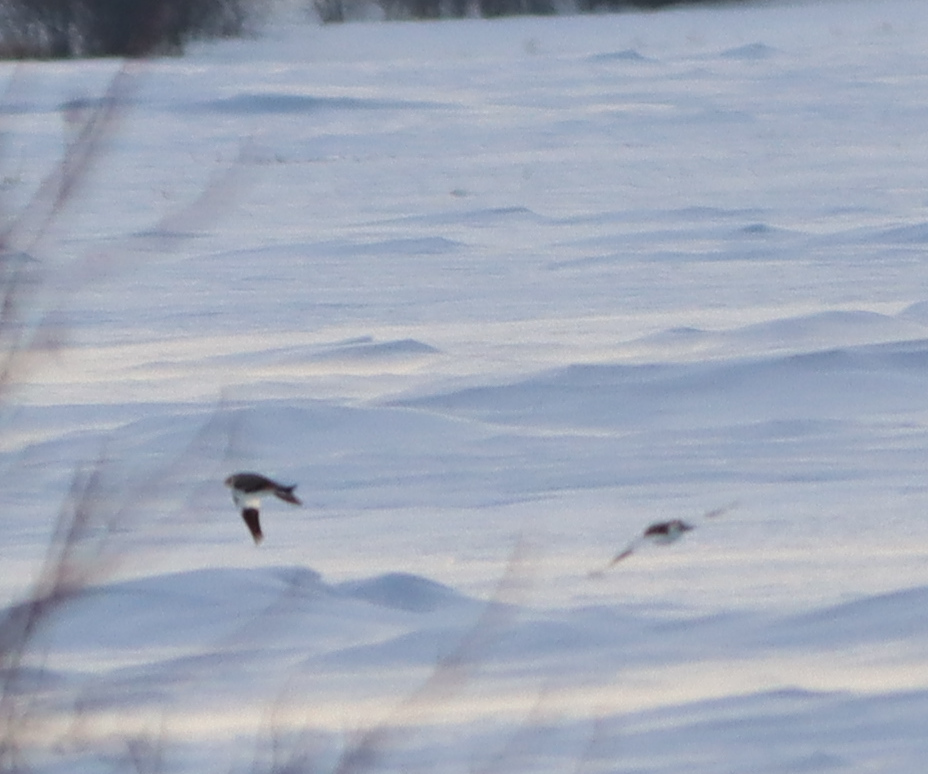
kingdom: Animalia
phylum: Chordata
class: Aves
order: Passeriformes
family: Calcariidae
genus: Plectrophenax
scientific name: Plectrophenax nivalis
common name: Snow bunting
